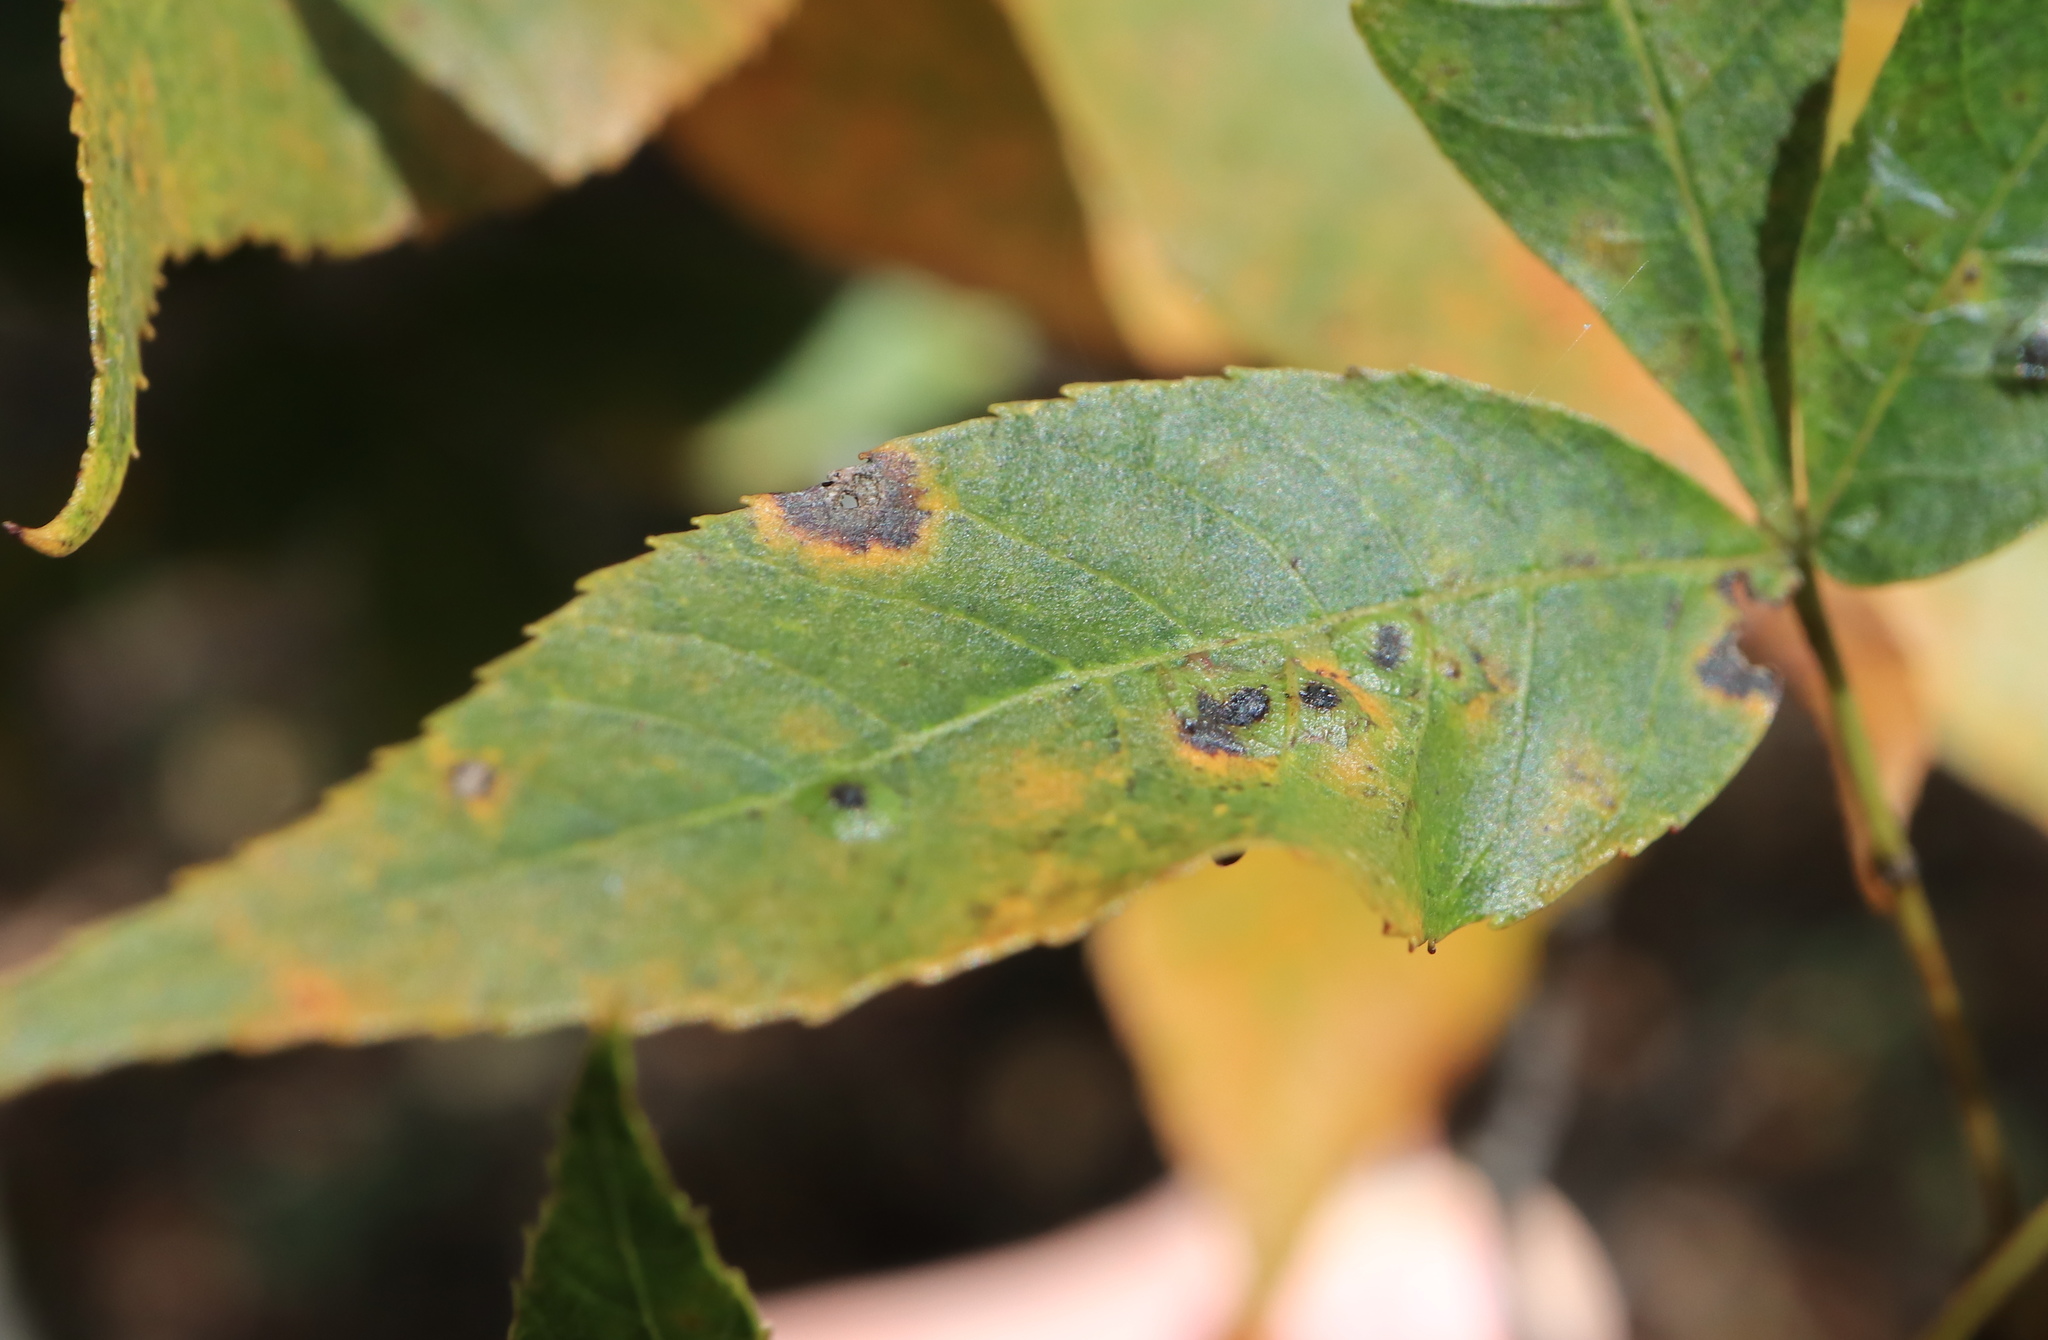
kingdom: Animalia
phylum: Arthropoda
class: Insecta
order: Diptera
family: Cecidomyiidae
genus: Caryomyia
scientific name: Caryomyia tubicola
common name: Hickory bullet gall midge
